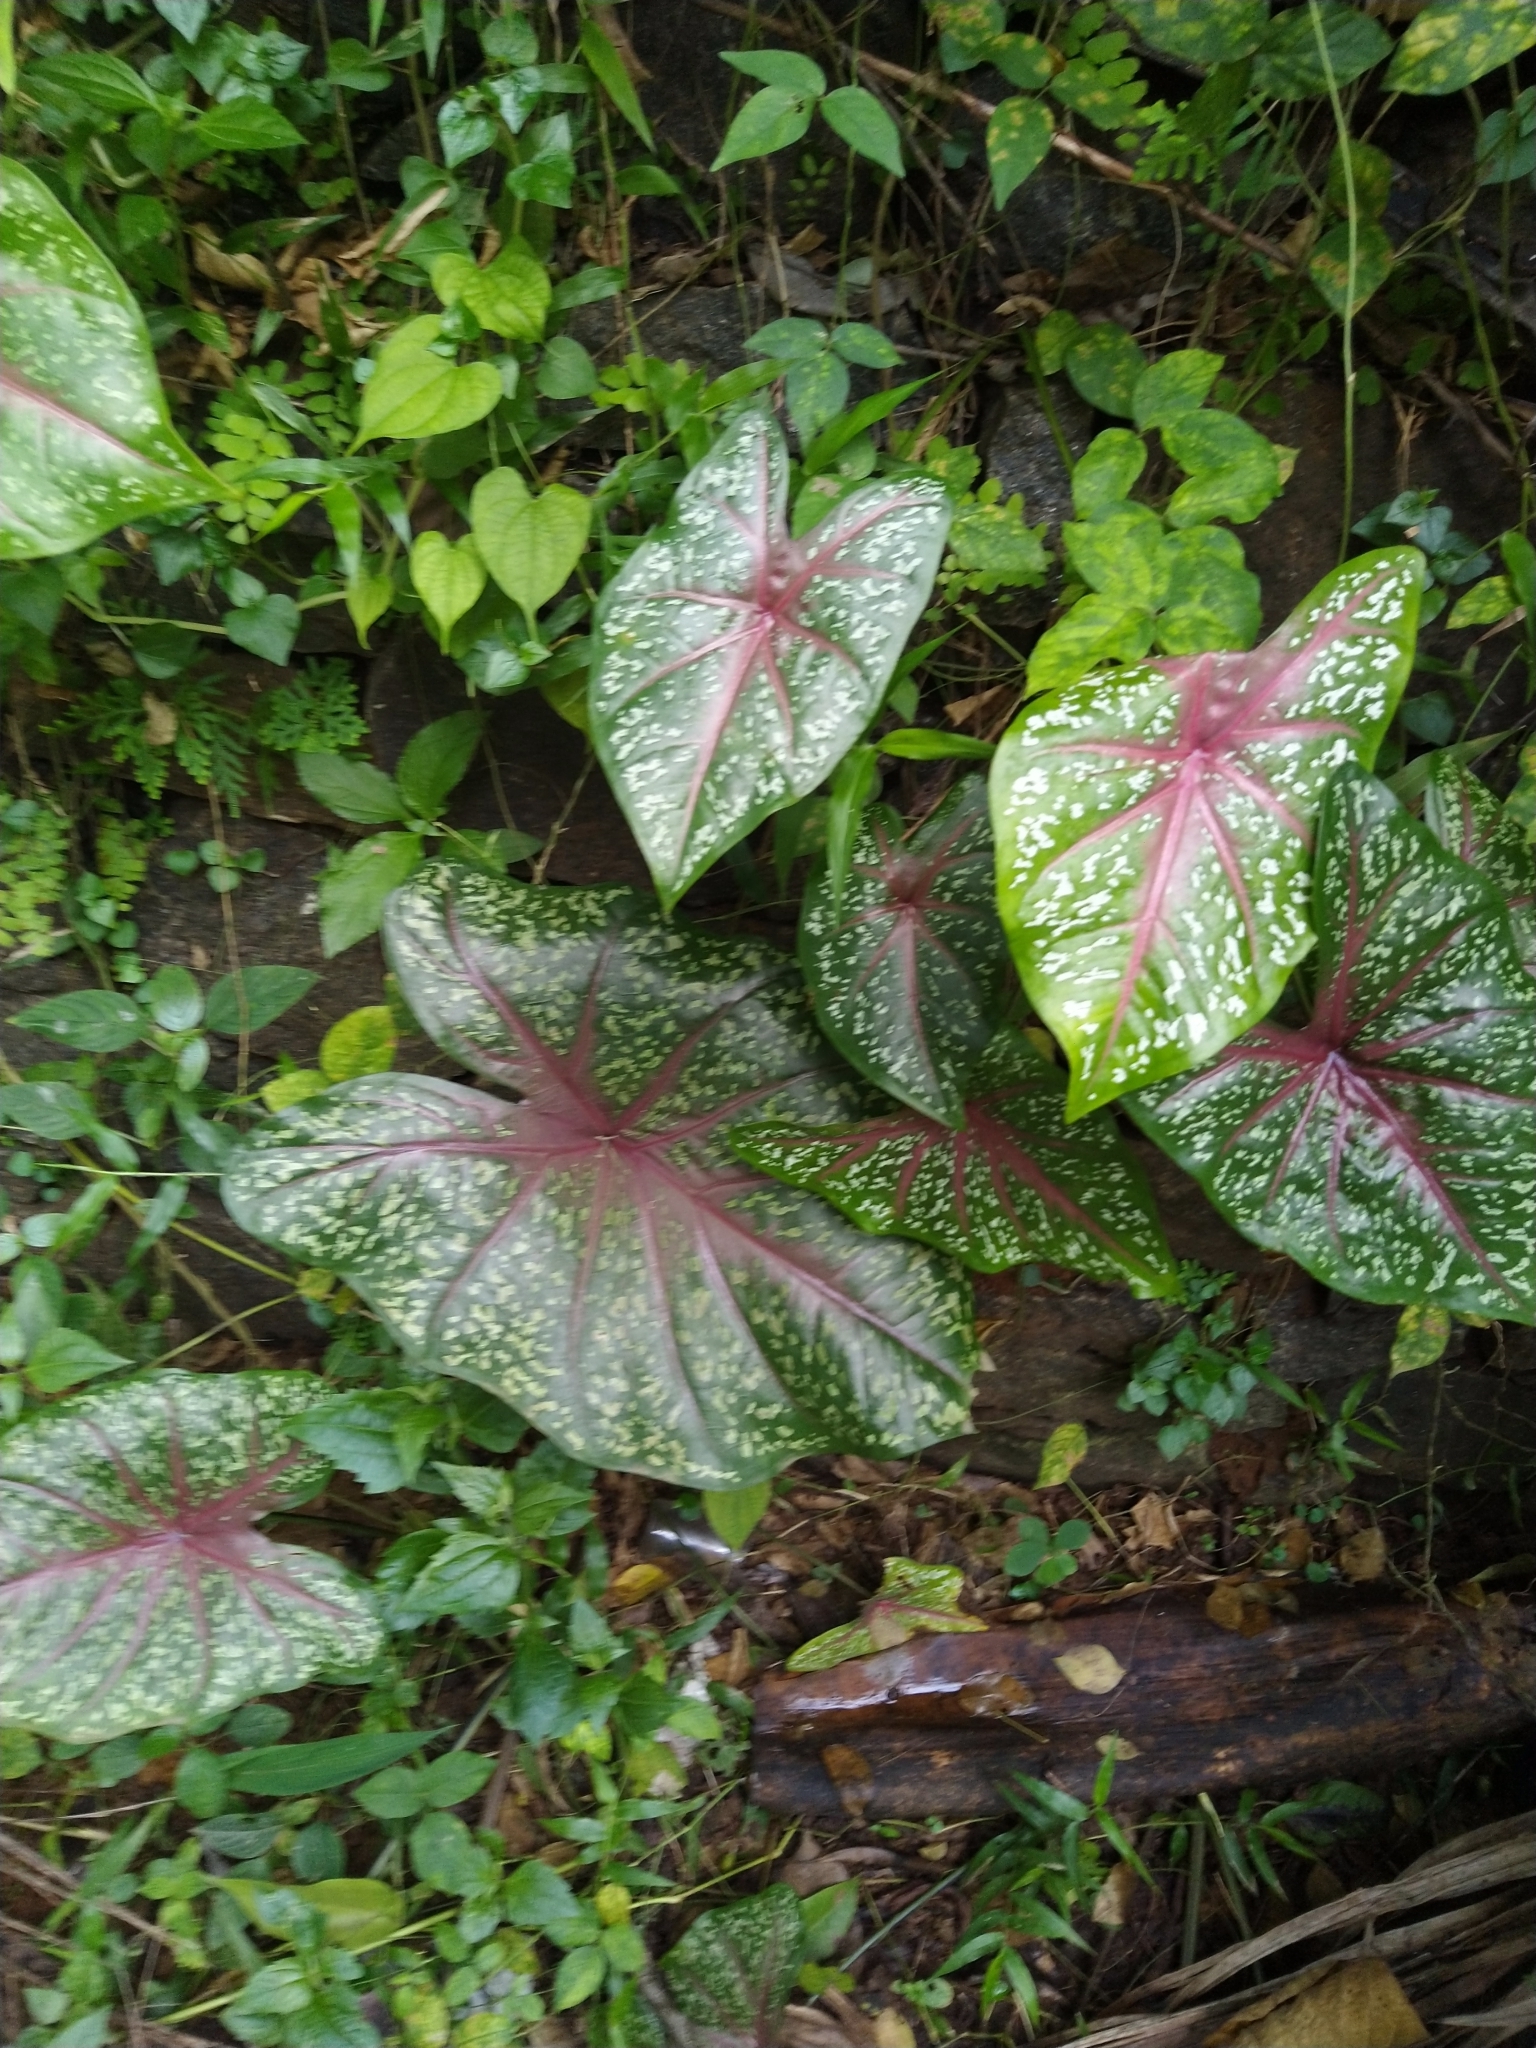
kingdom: Plantae
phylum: Tracheophyta
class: Liliopsida
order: Alismatales
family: Araceae
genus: Caladium
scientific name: Caladium bicolor
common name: Artist's pallet
